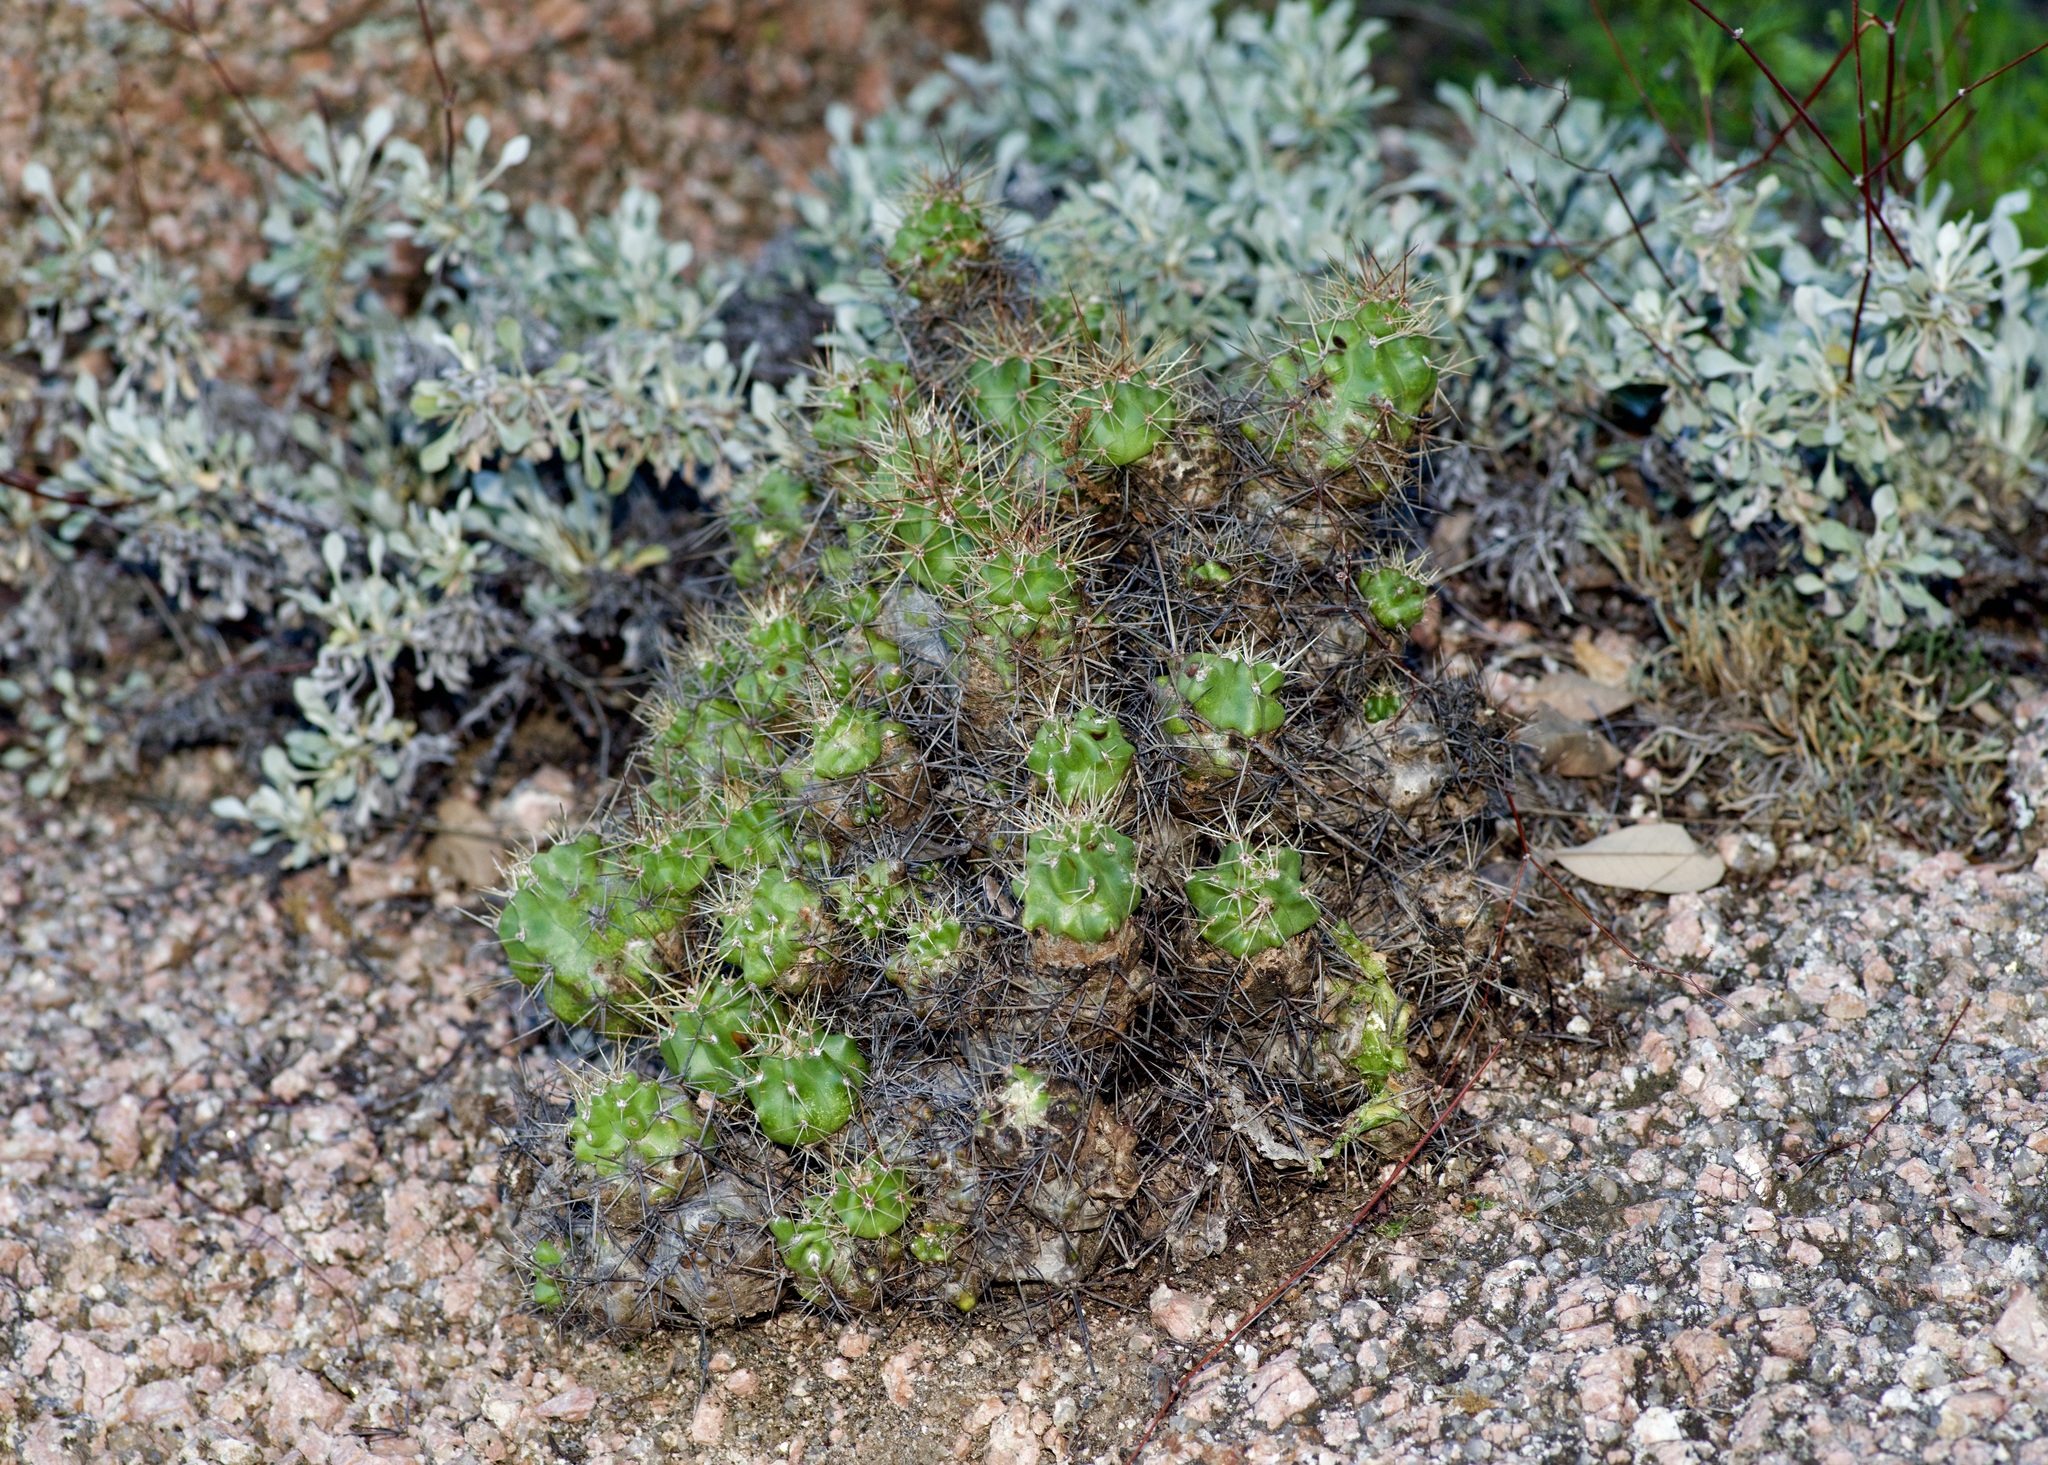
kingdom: Plantae
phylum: Tracheophyta
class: Magnoliopsida
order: Caryophyllales
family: Cactaceae
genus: Echinocereus
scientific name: Echinocereus coccineus
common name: Scarlet hedgehog cactus
